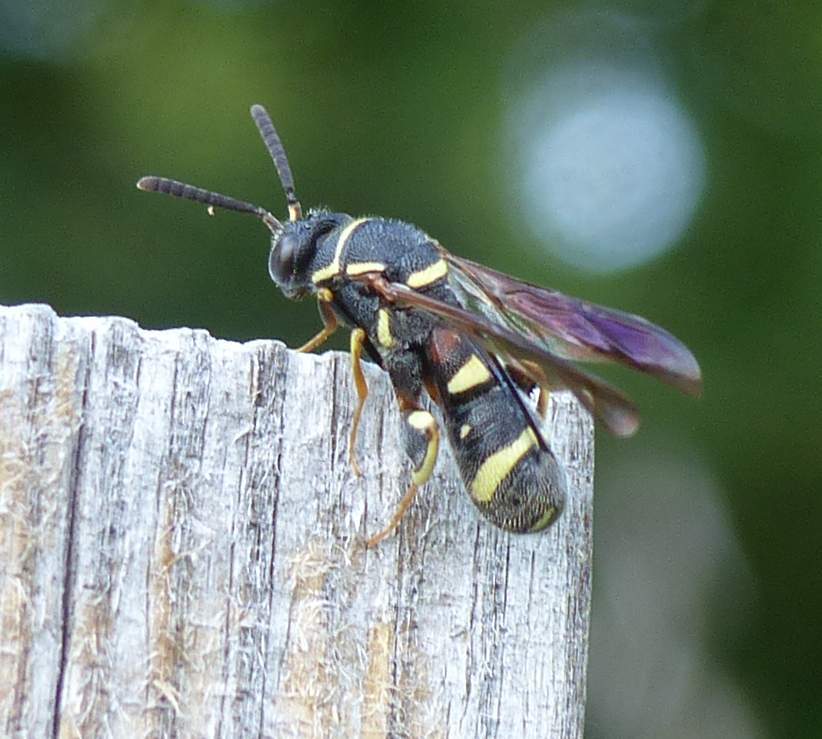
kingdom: Animalia
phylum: Arthropoda
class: Insecta
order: Hymenoptera
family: Leucospidae
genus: Leucospis
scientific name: Leucospis affinis
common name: Wasp
